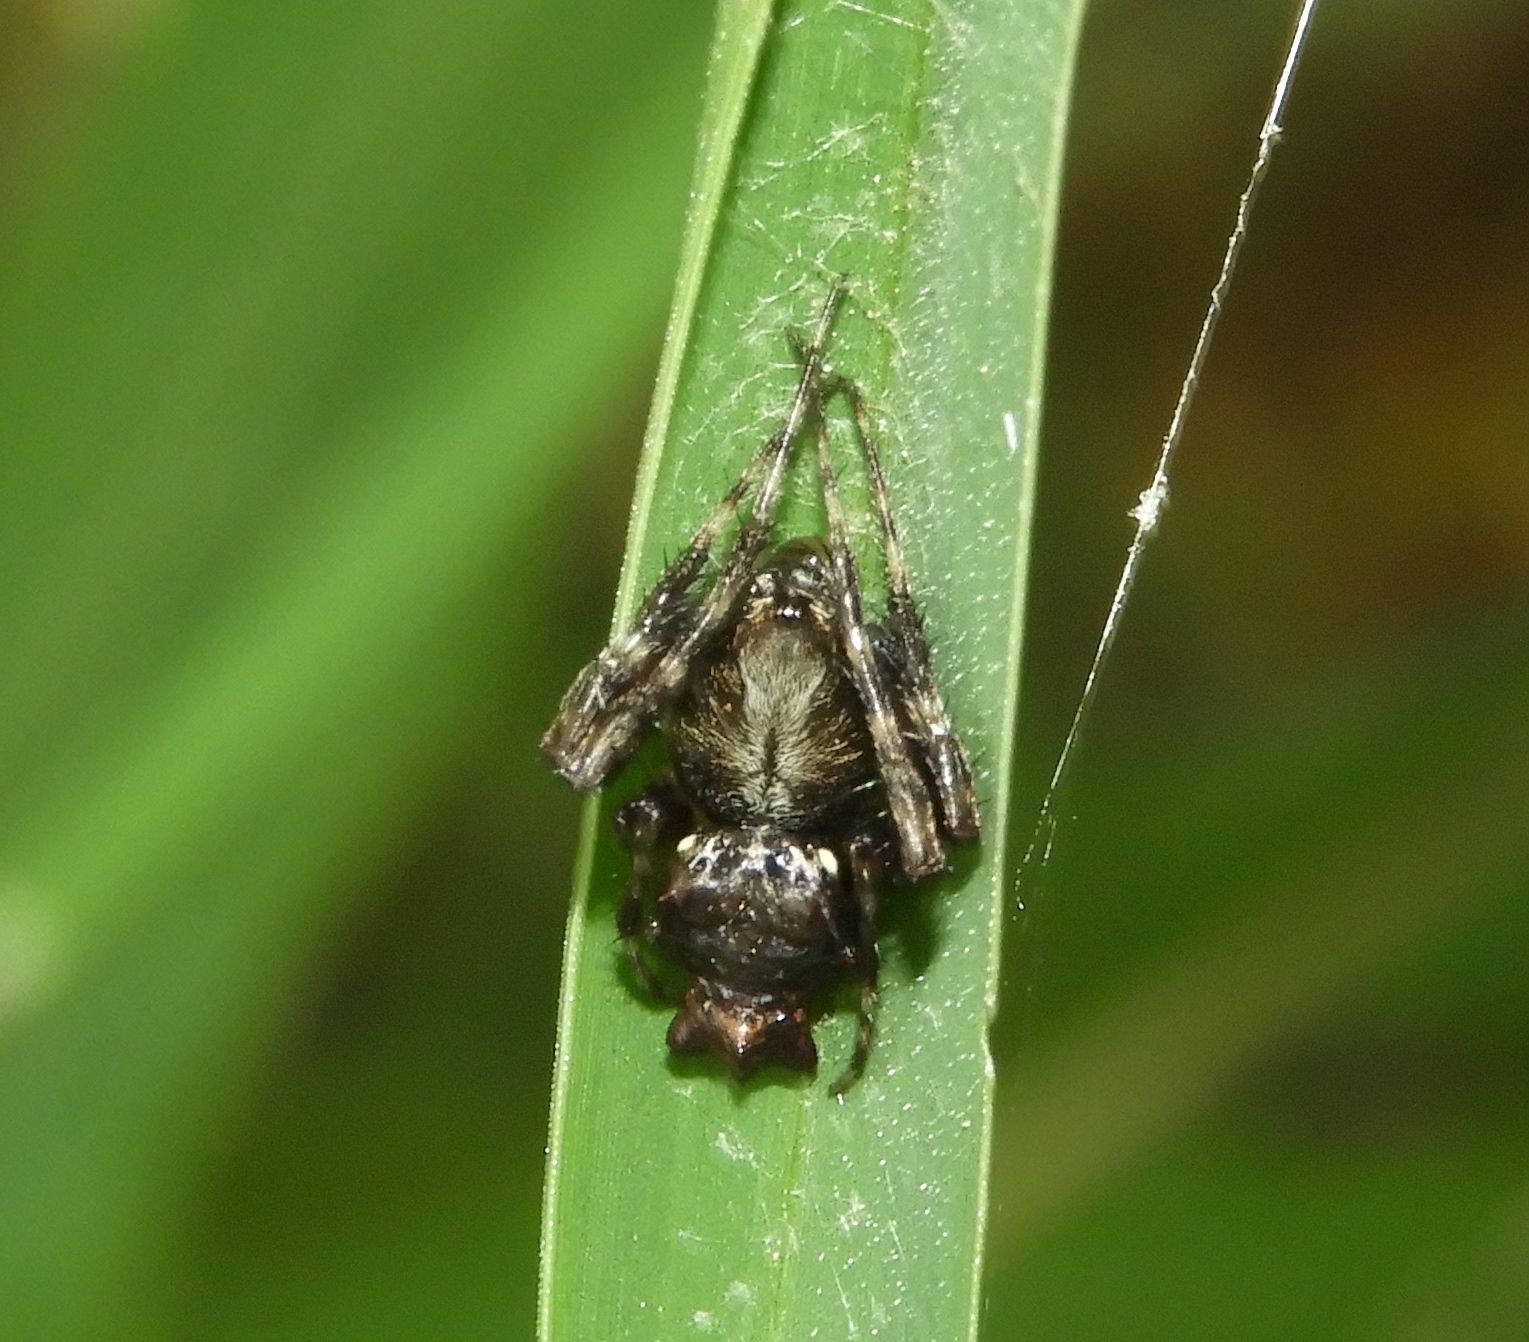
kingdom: Animalia
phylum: Arthropoda
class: Arachnida
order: Araneae
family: Araneidae
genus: Wagneriana
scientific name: Wagneriana
